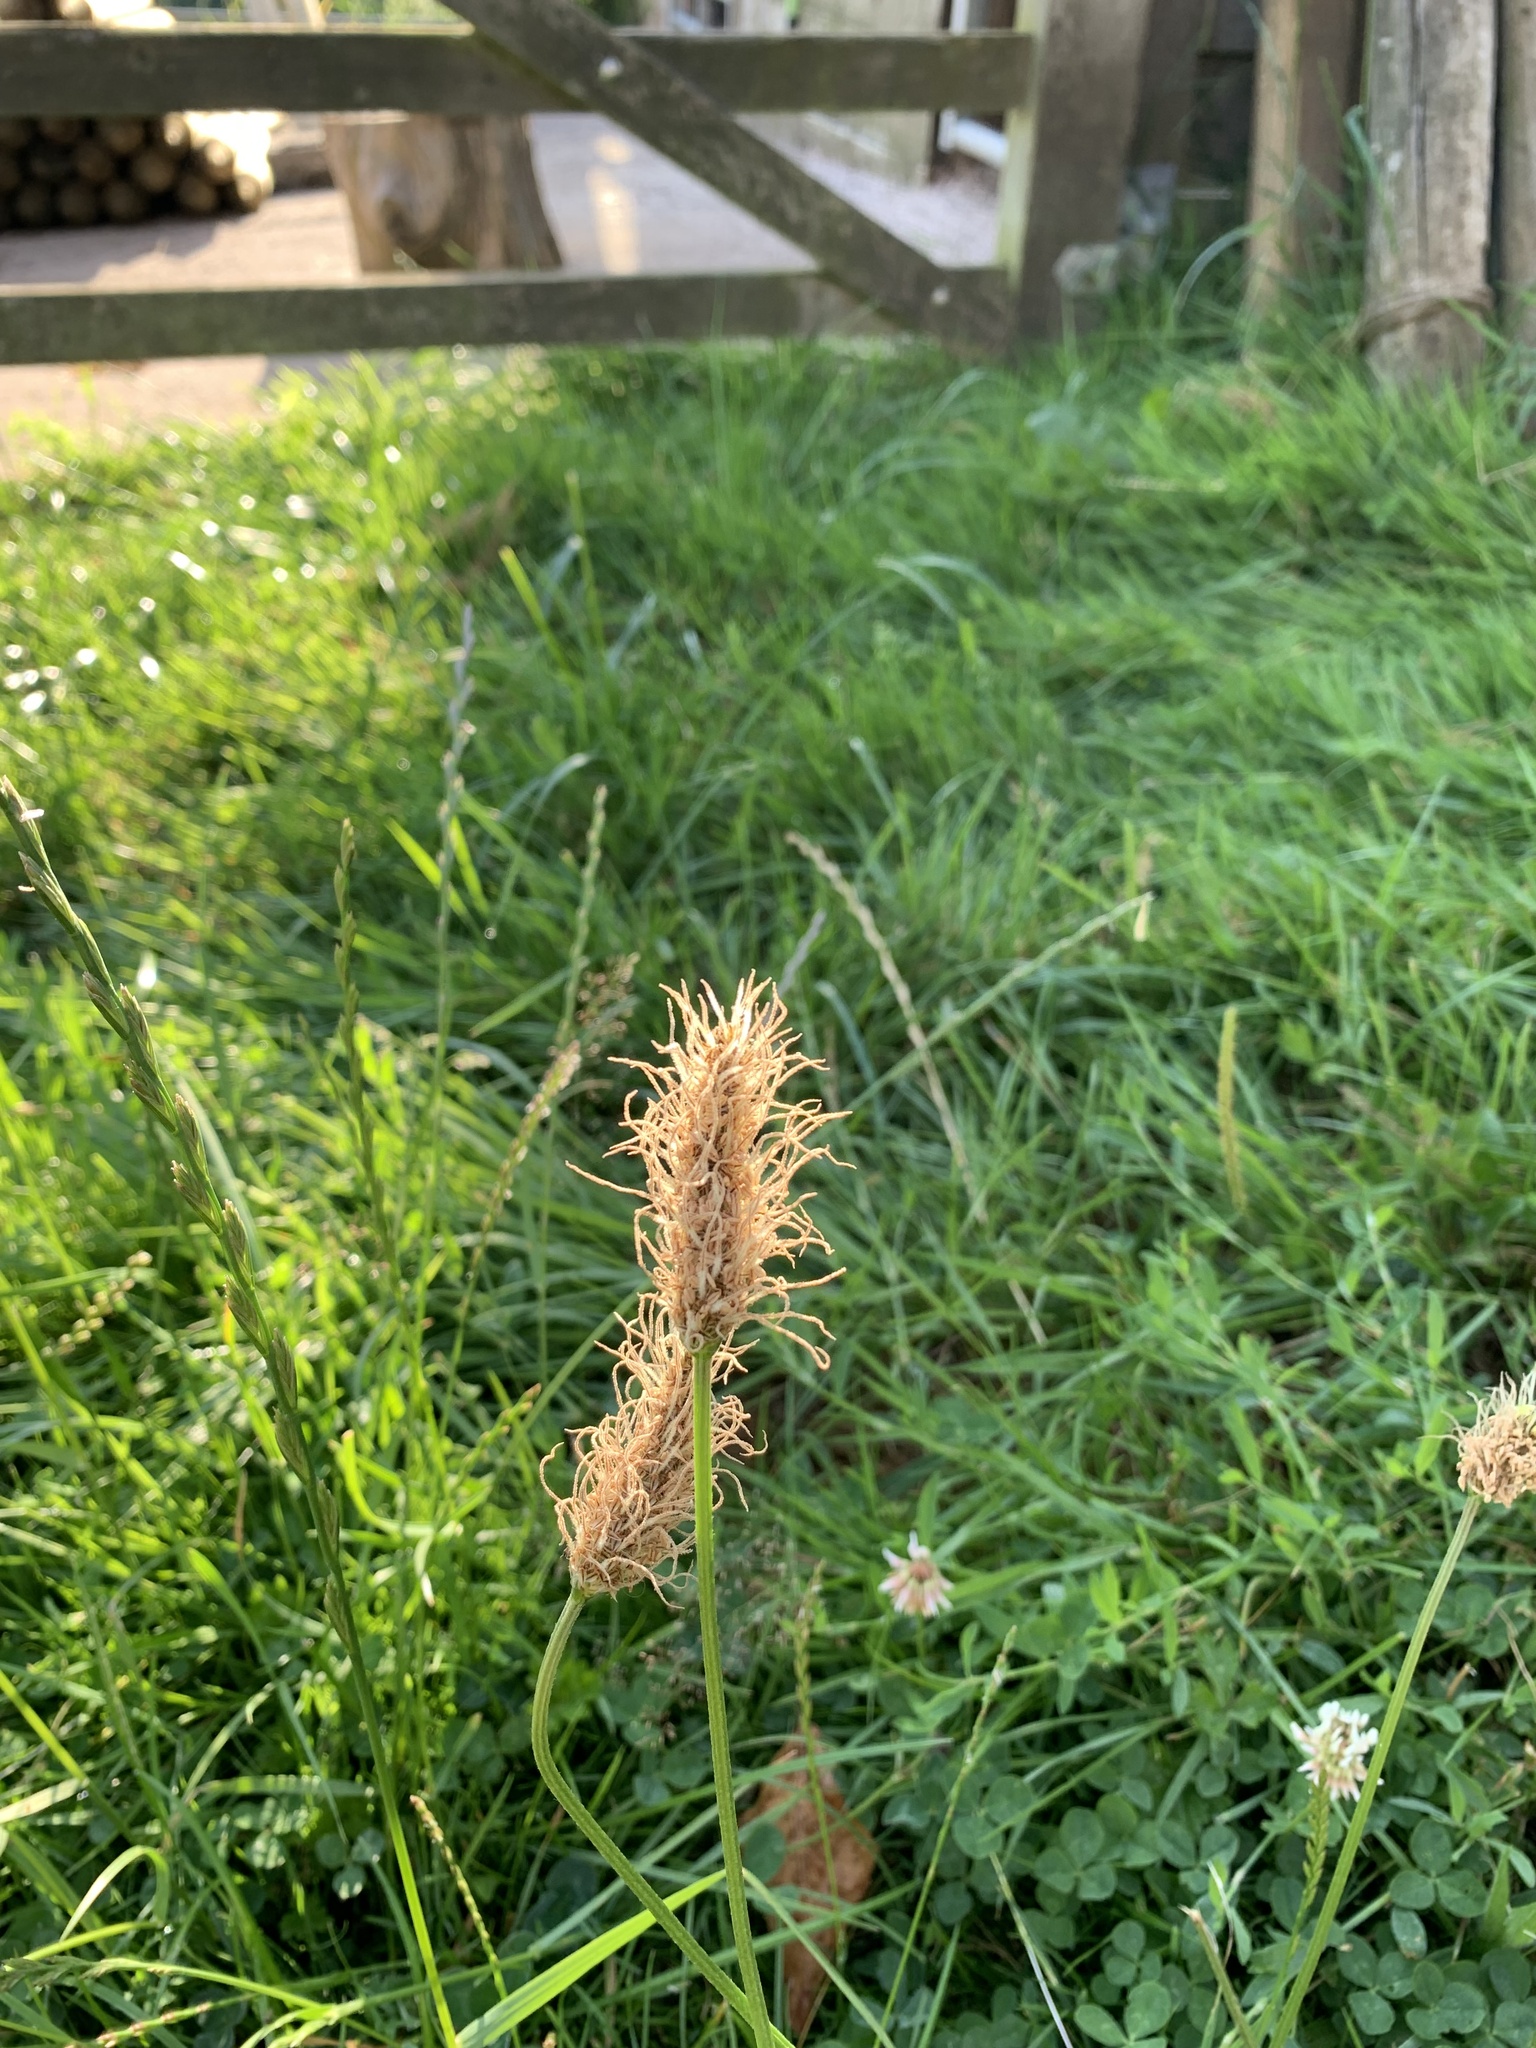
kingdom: Plantae
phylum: Tracheophyta
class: Magnoliopsida
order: Lamiales
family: Plantaginaceae
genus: Plantago
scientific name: Plantago lanceolata
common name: Ribwort plantain
